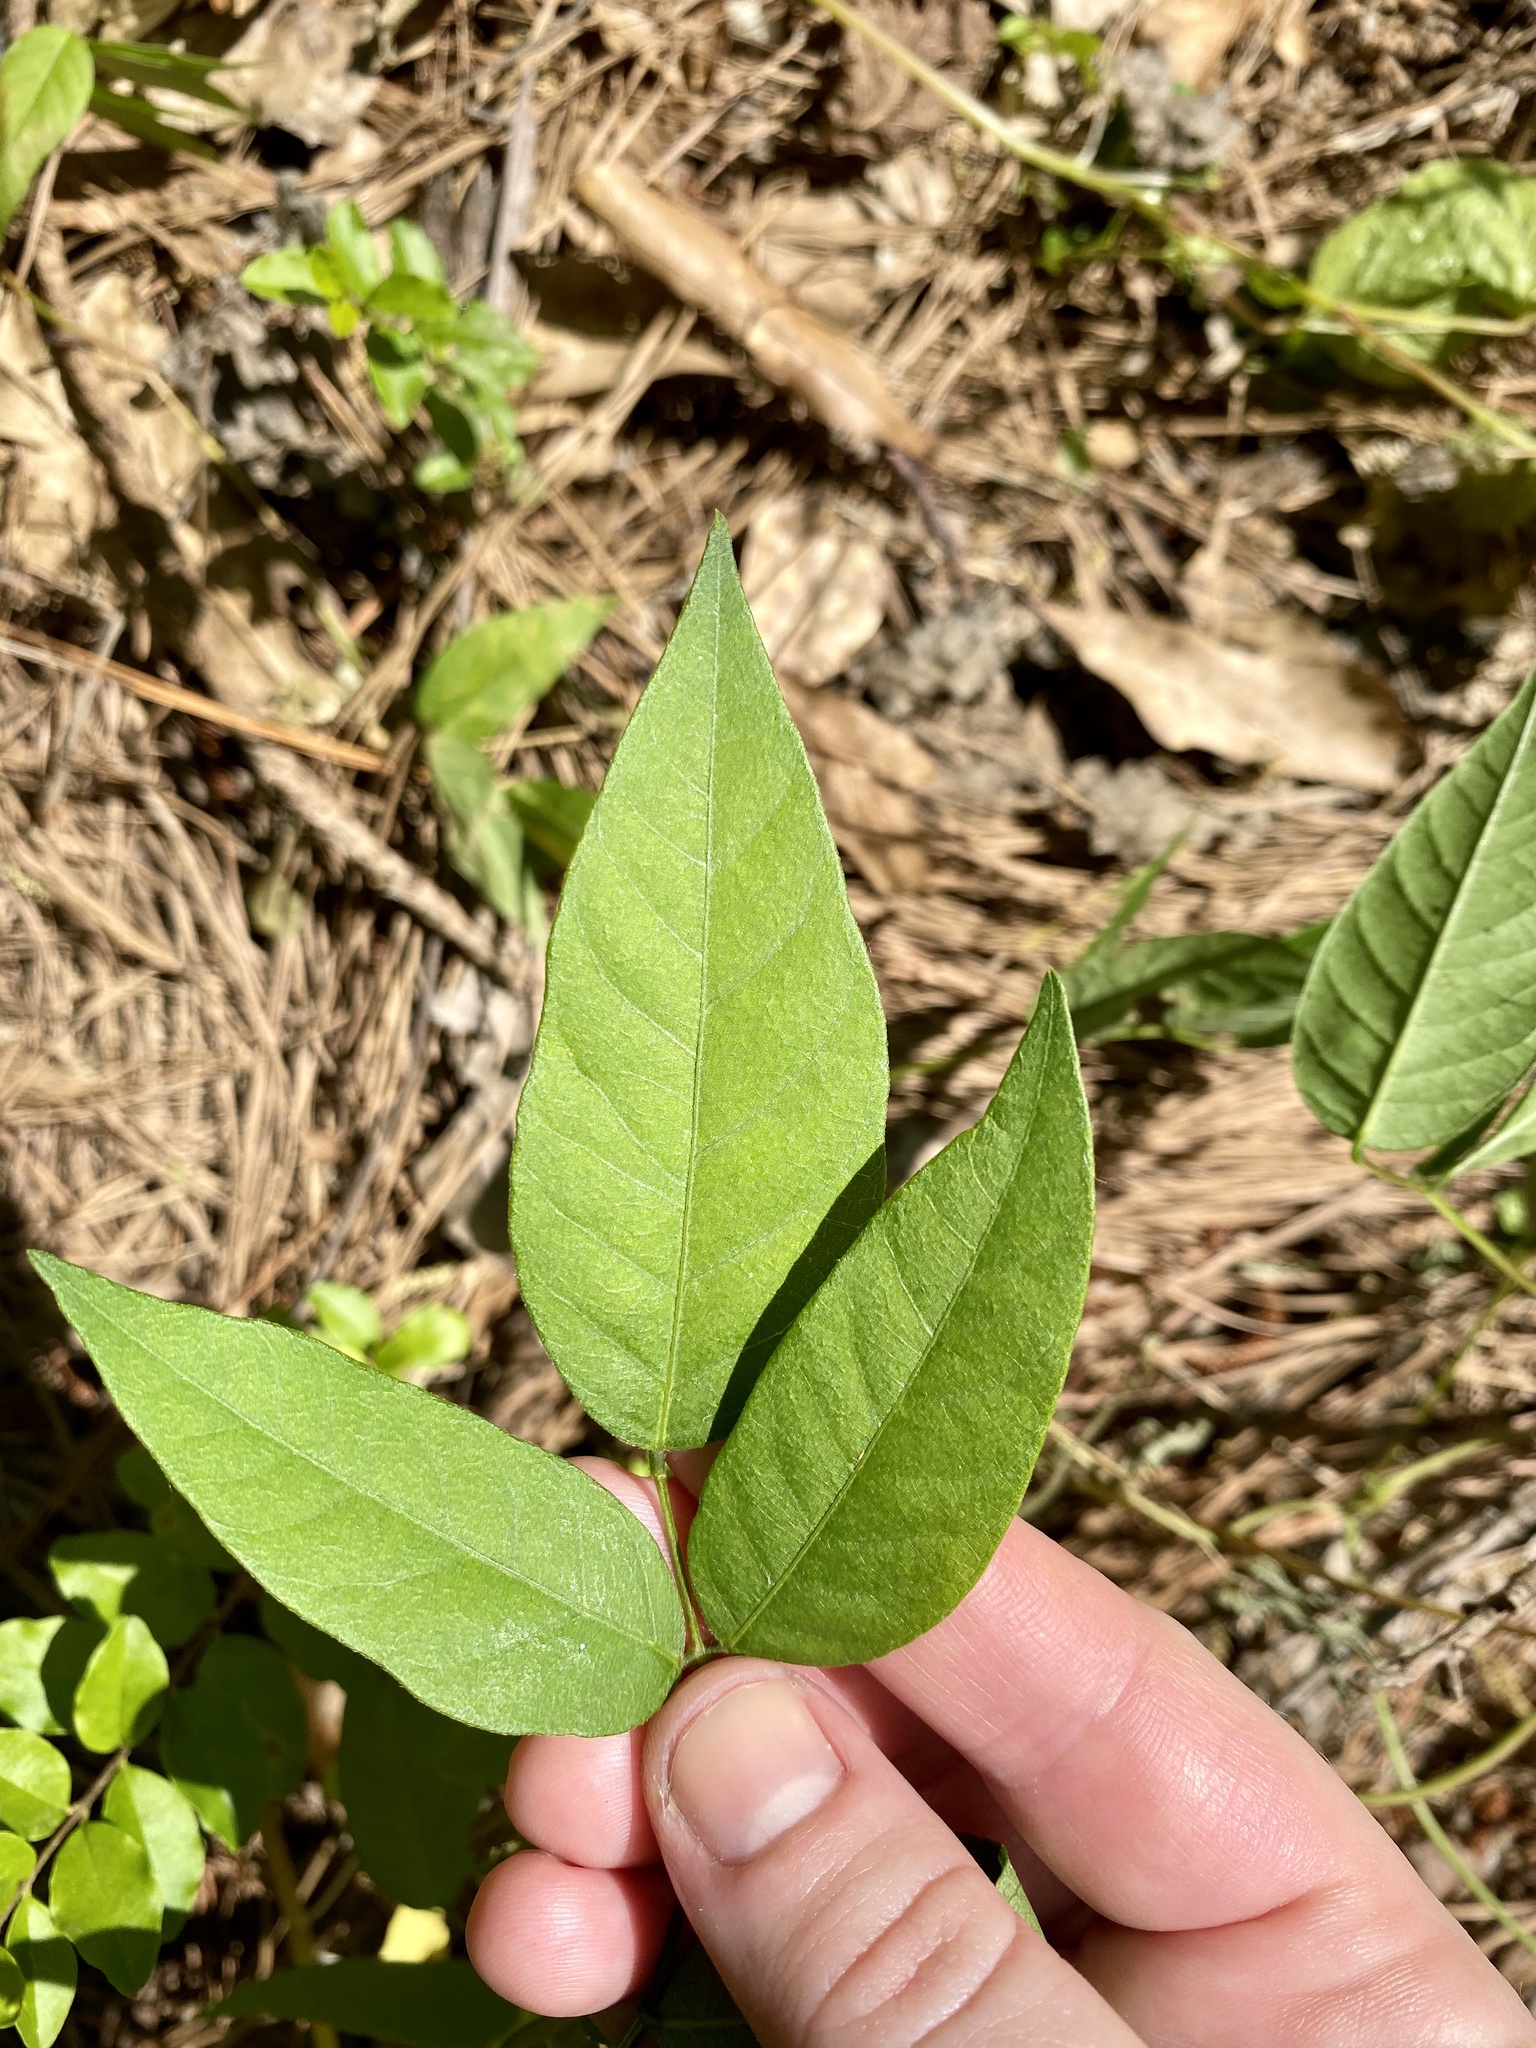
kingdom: Plantae
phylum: Tracheophyta
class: Magnoliopsida
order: Fabales
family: Fabaceae
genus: Apios
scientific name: Apios americana
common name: American potato-bean
